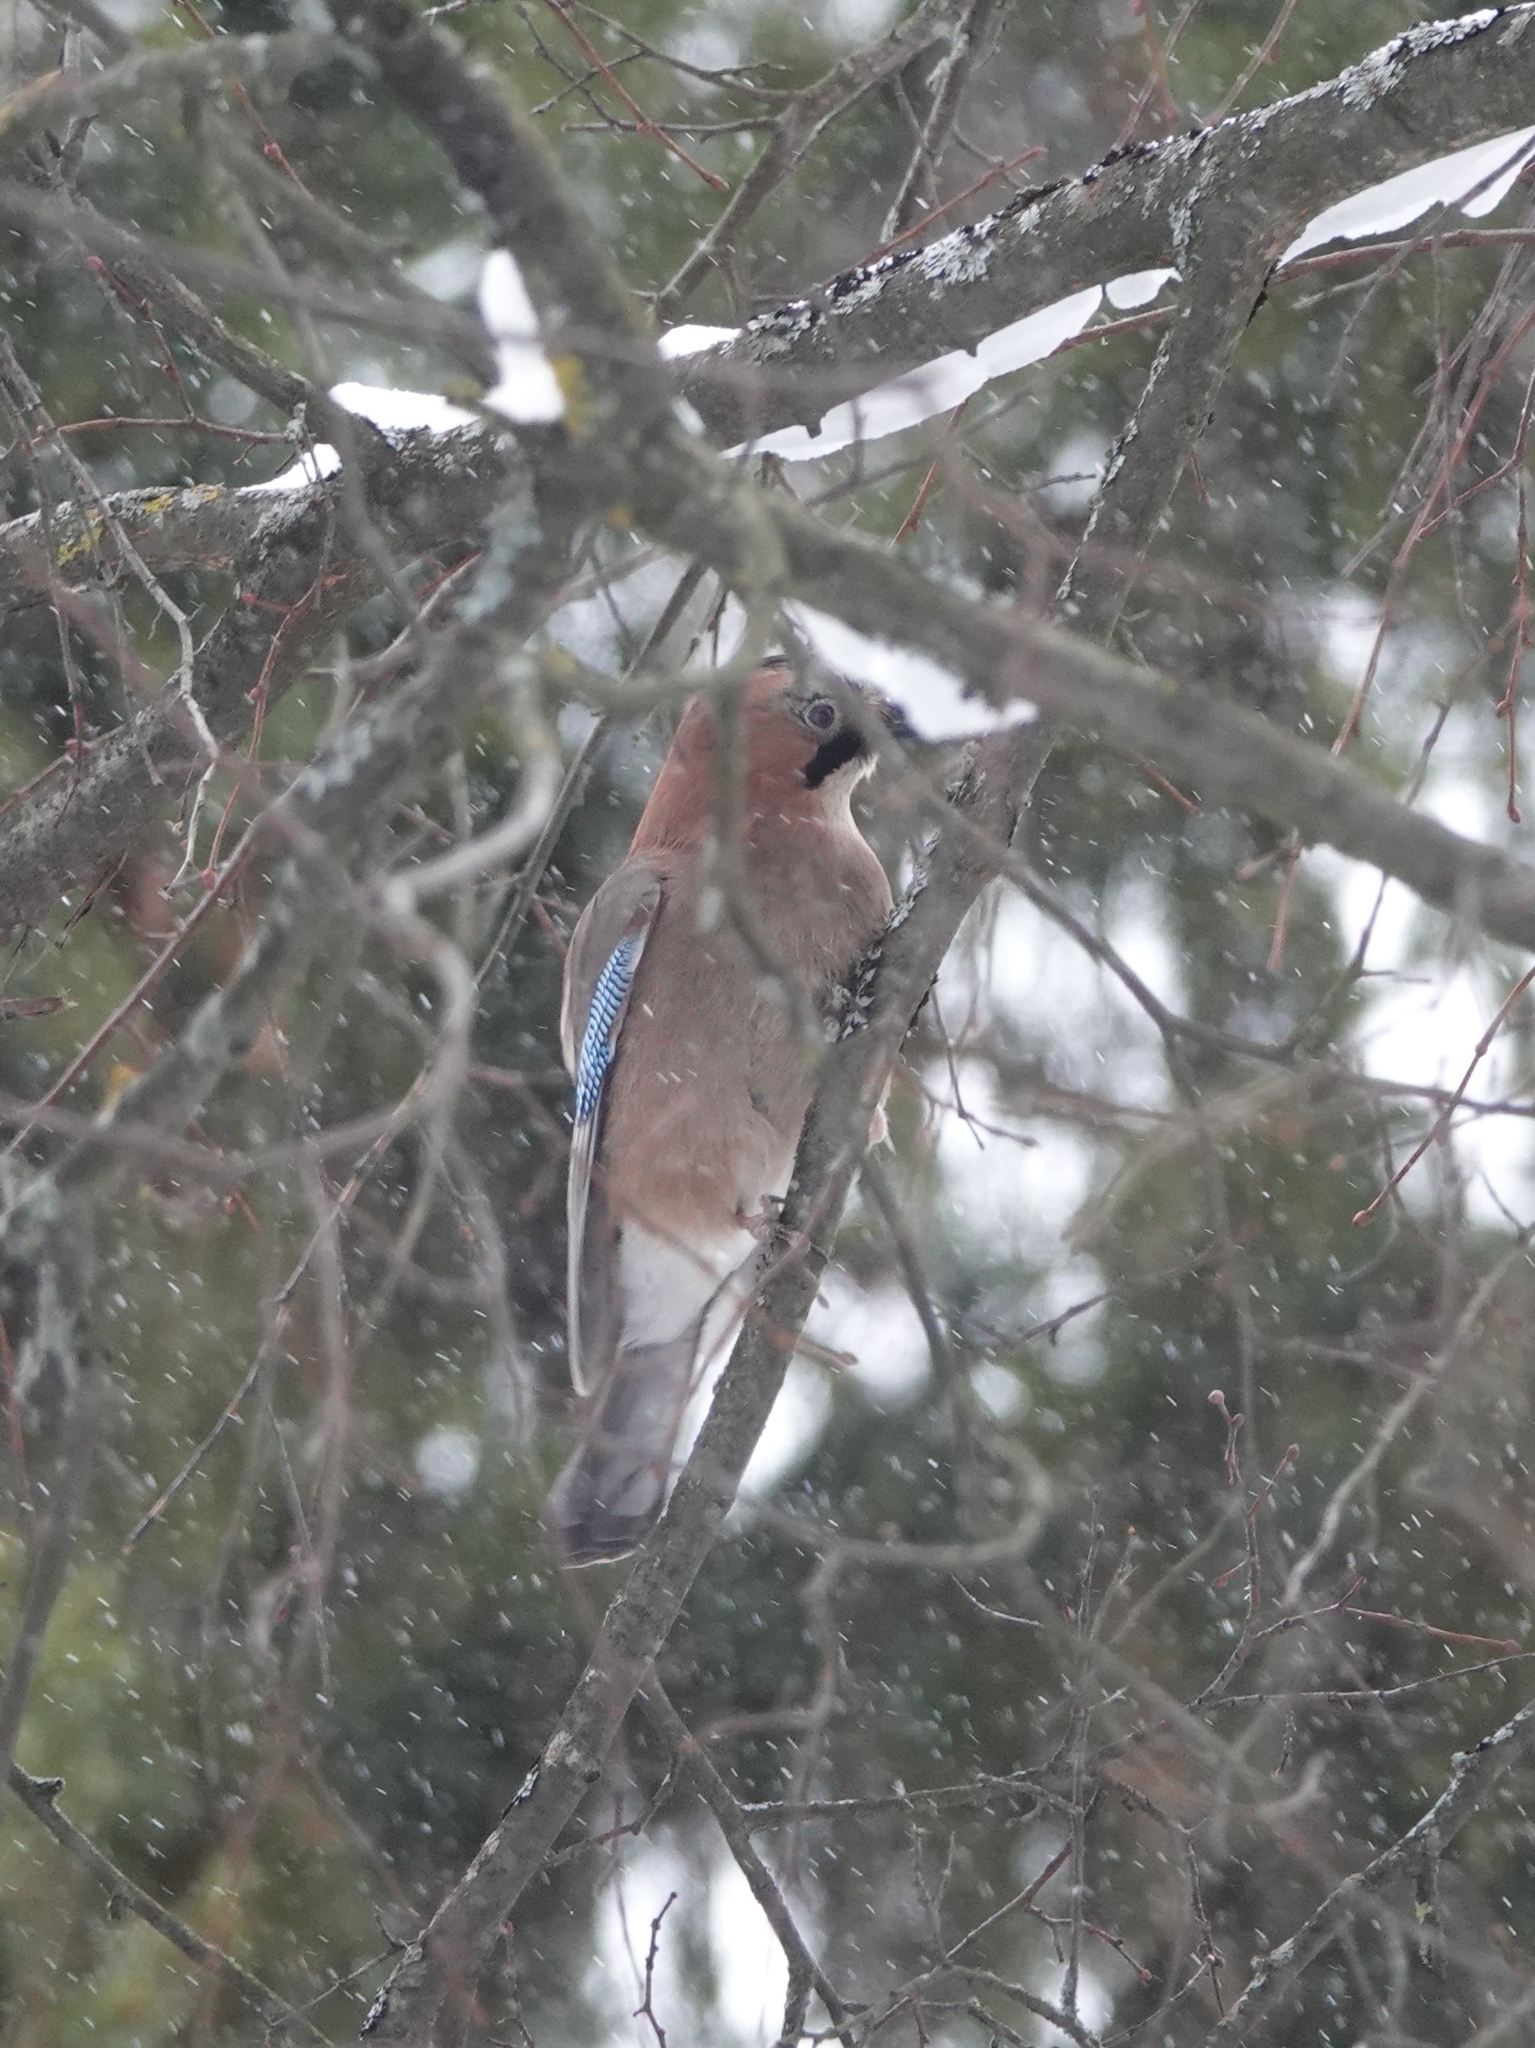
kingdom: Animalia
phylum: Chordata
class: Aves
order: Passeriformes
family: Corvidae
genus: Garrulus
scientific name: Garrulus glandarius
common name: Eurasian jay
